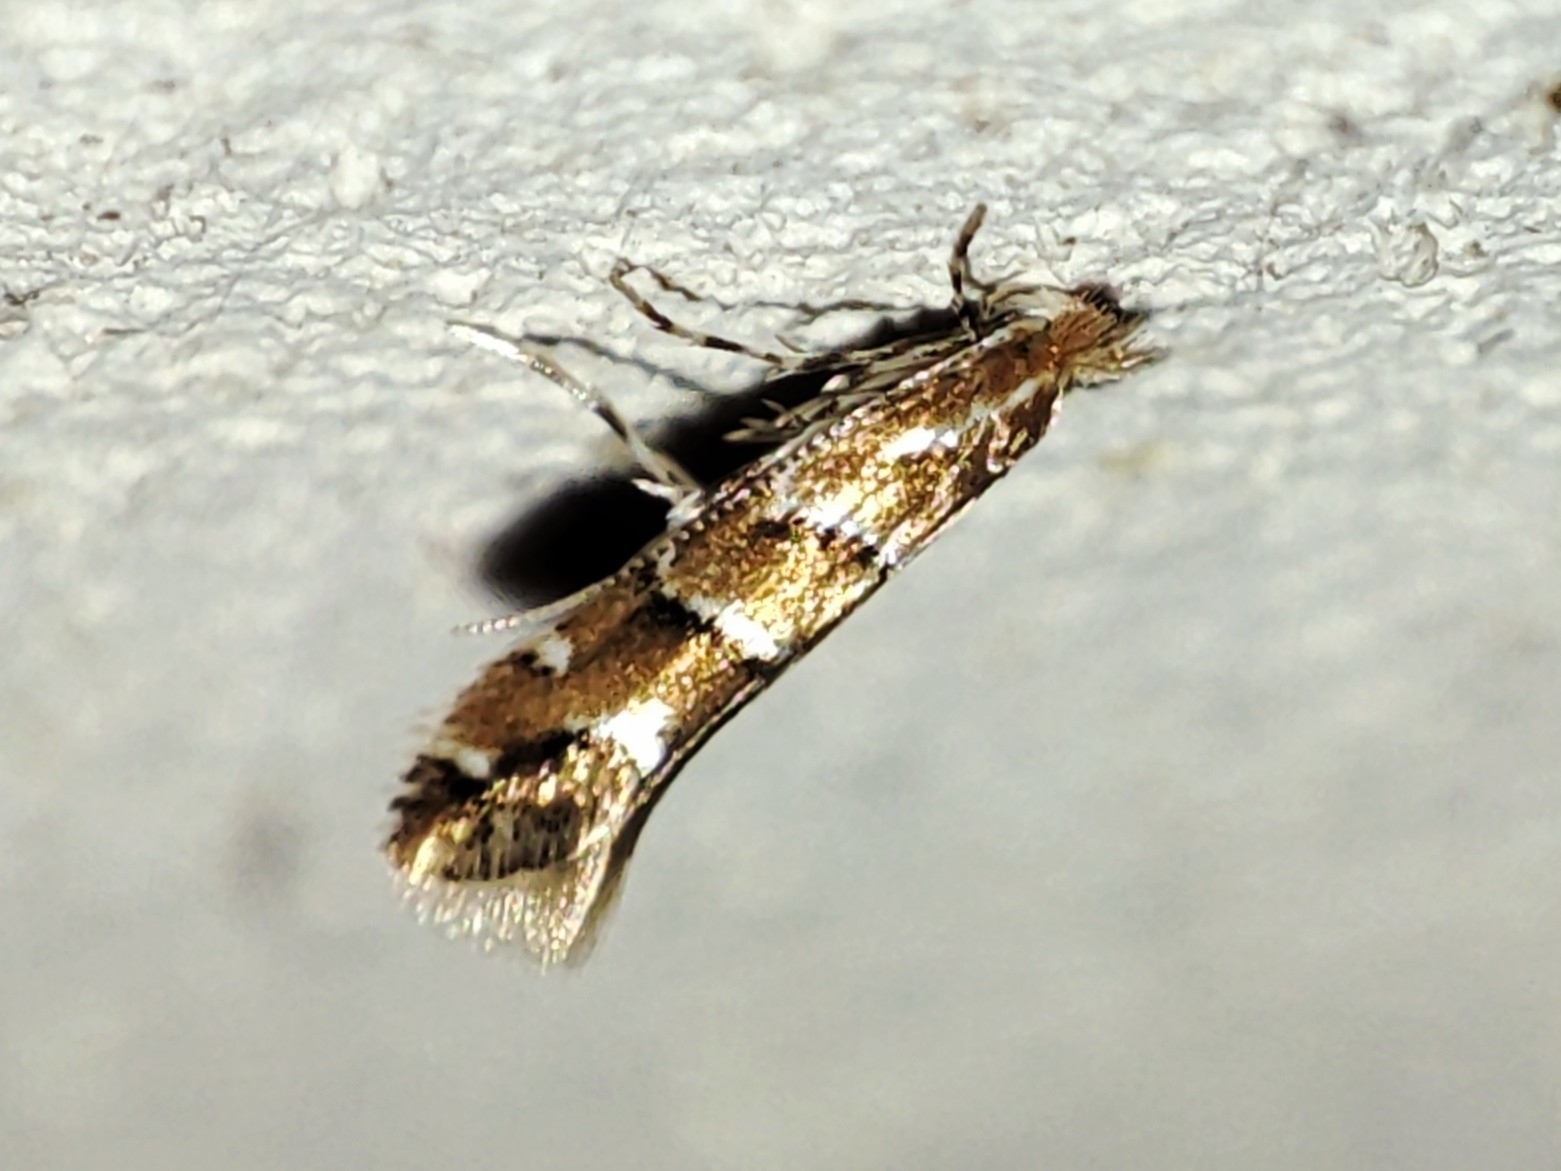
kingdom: Animalia
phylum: Arthropoda
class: Insecta
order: Lepidoptera
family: Gracillariidae
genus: Cameraria
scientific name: Cameraria ohridella
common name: Horse-chestnut leaf-miner
